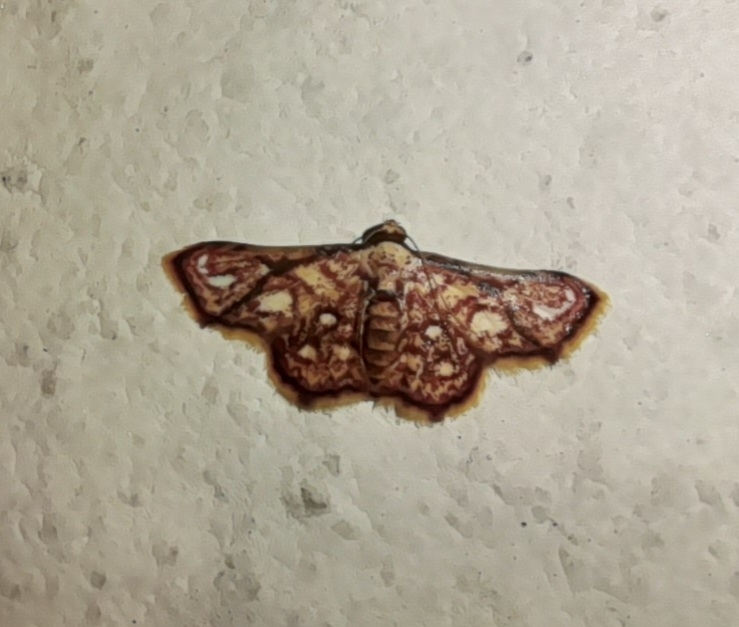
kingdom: Animalia
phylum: Arthropoda
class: Insecta
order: Lepidoptera
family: Noctuidae
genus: Enispa
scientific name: Enispa rosellus
